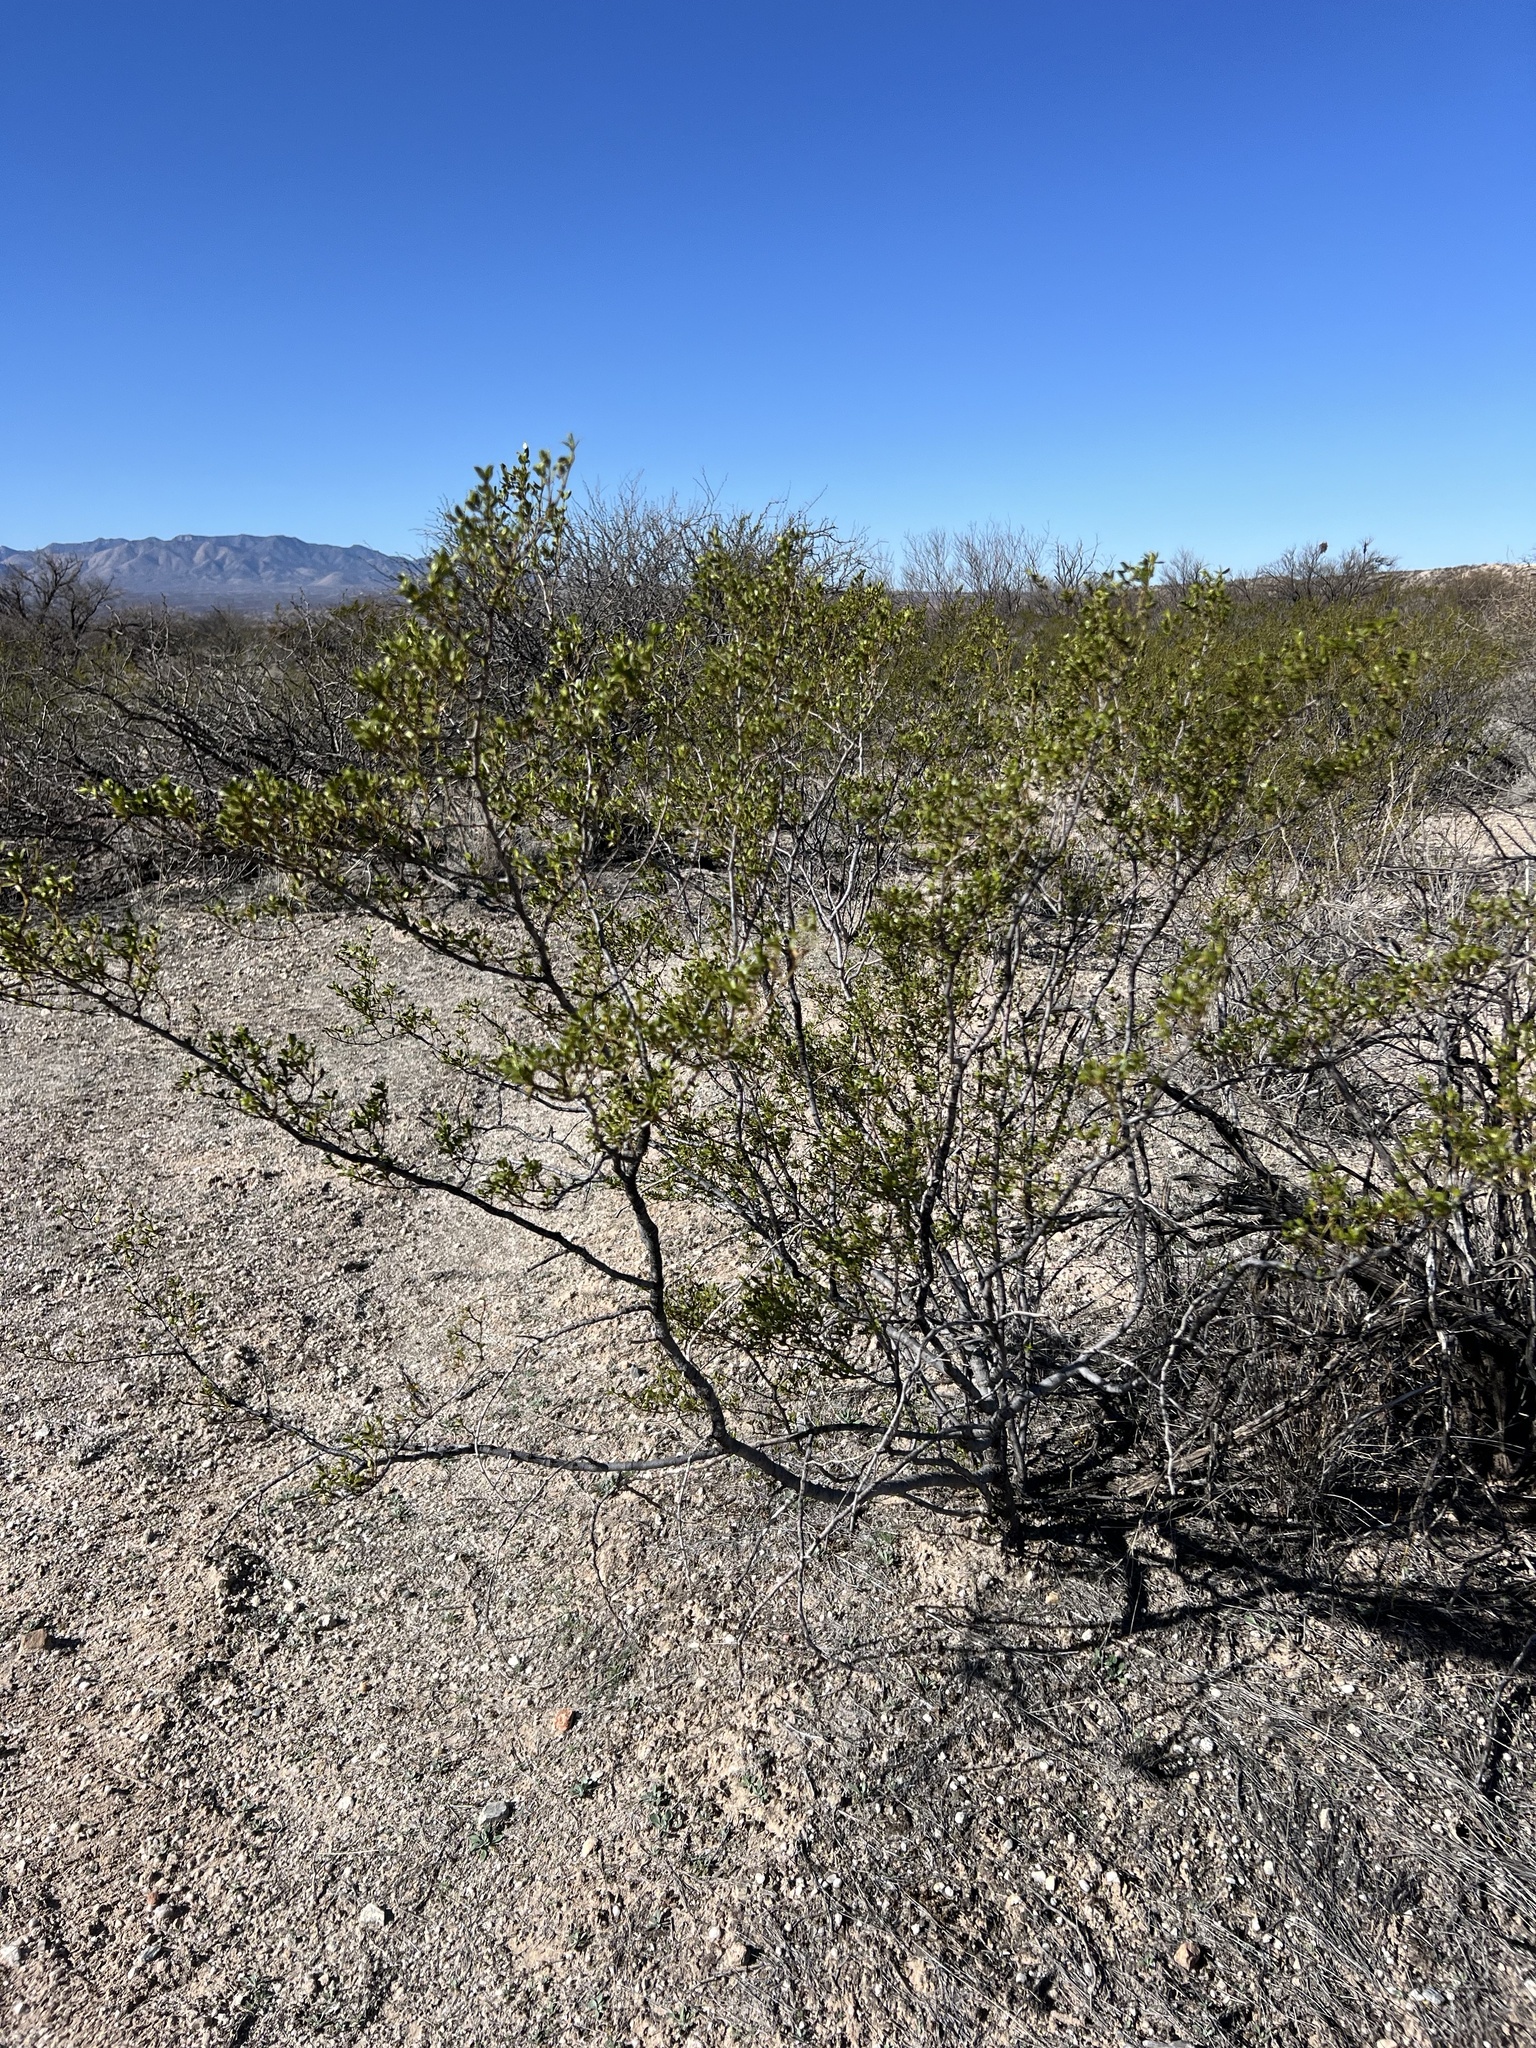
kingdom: Plantae
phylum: Tracheophyta
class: Magnoliopsida
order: Zygophyllales
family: Zygophyllaceae
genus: Larrea
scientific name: Larrea tridentata
